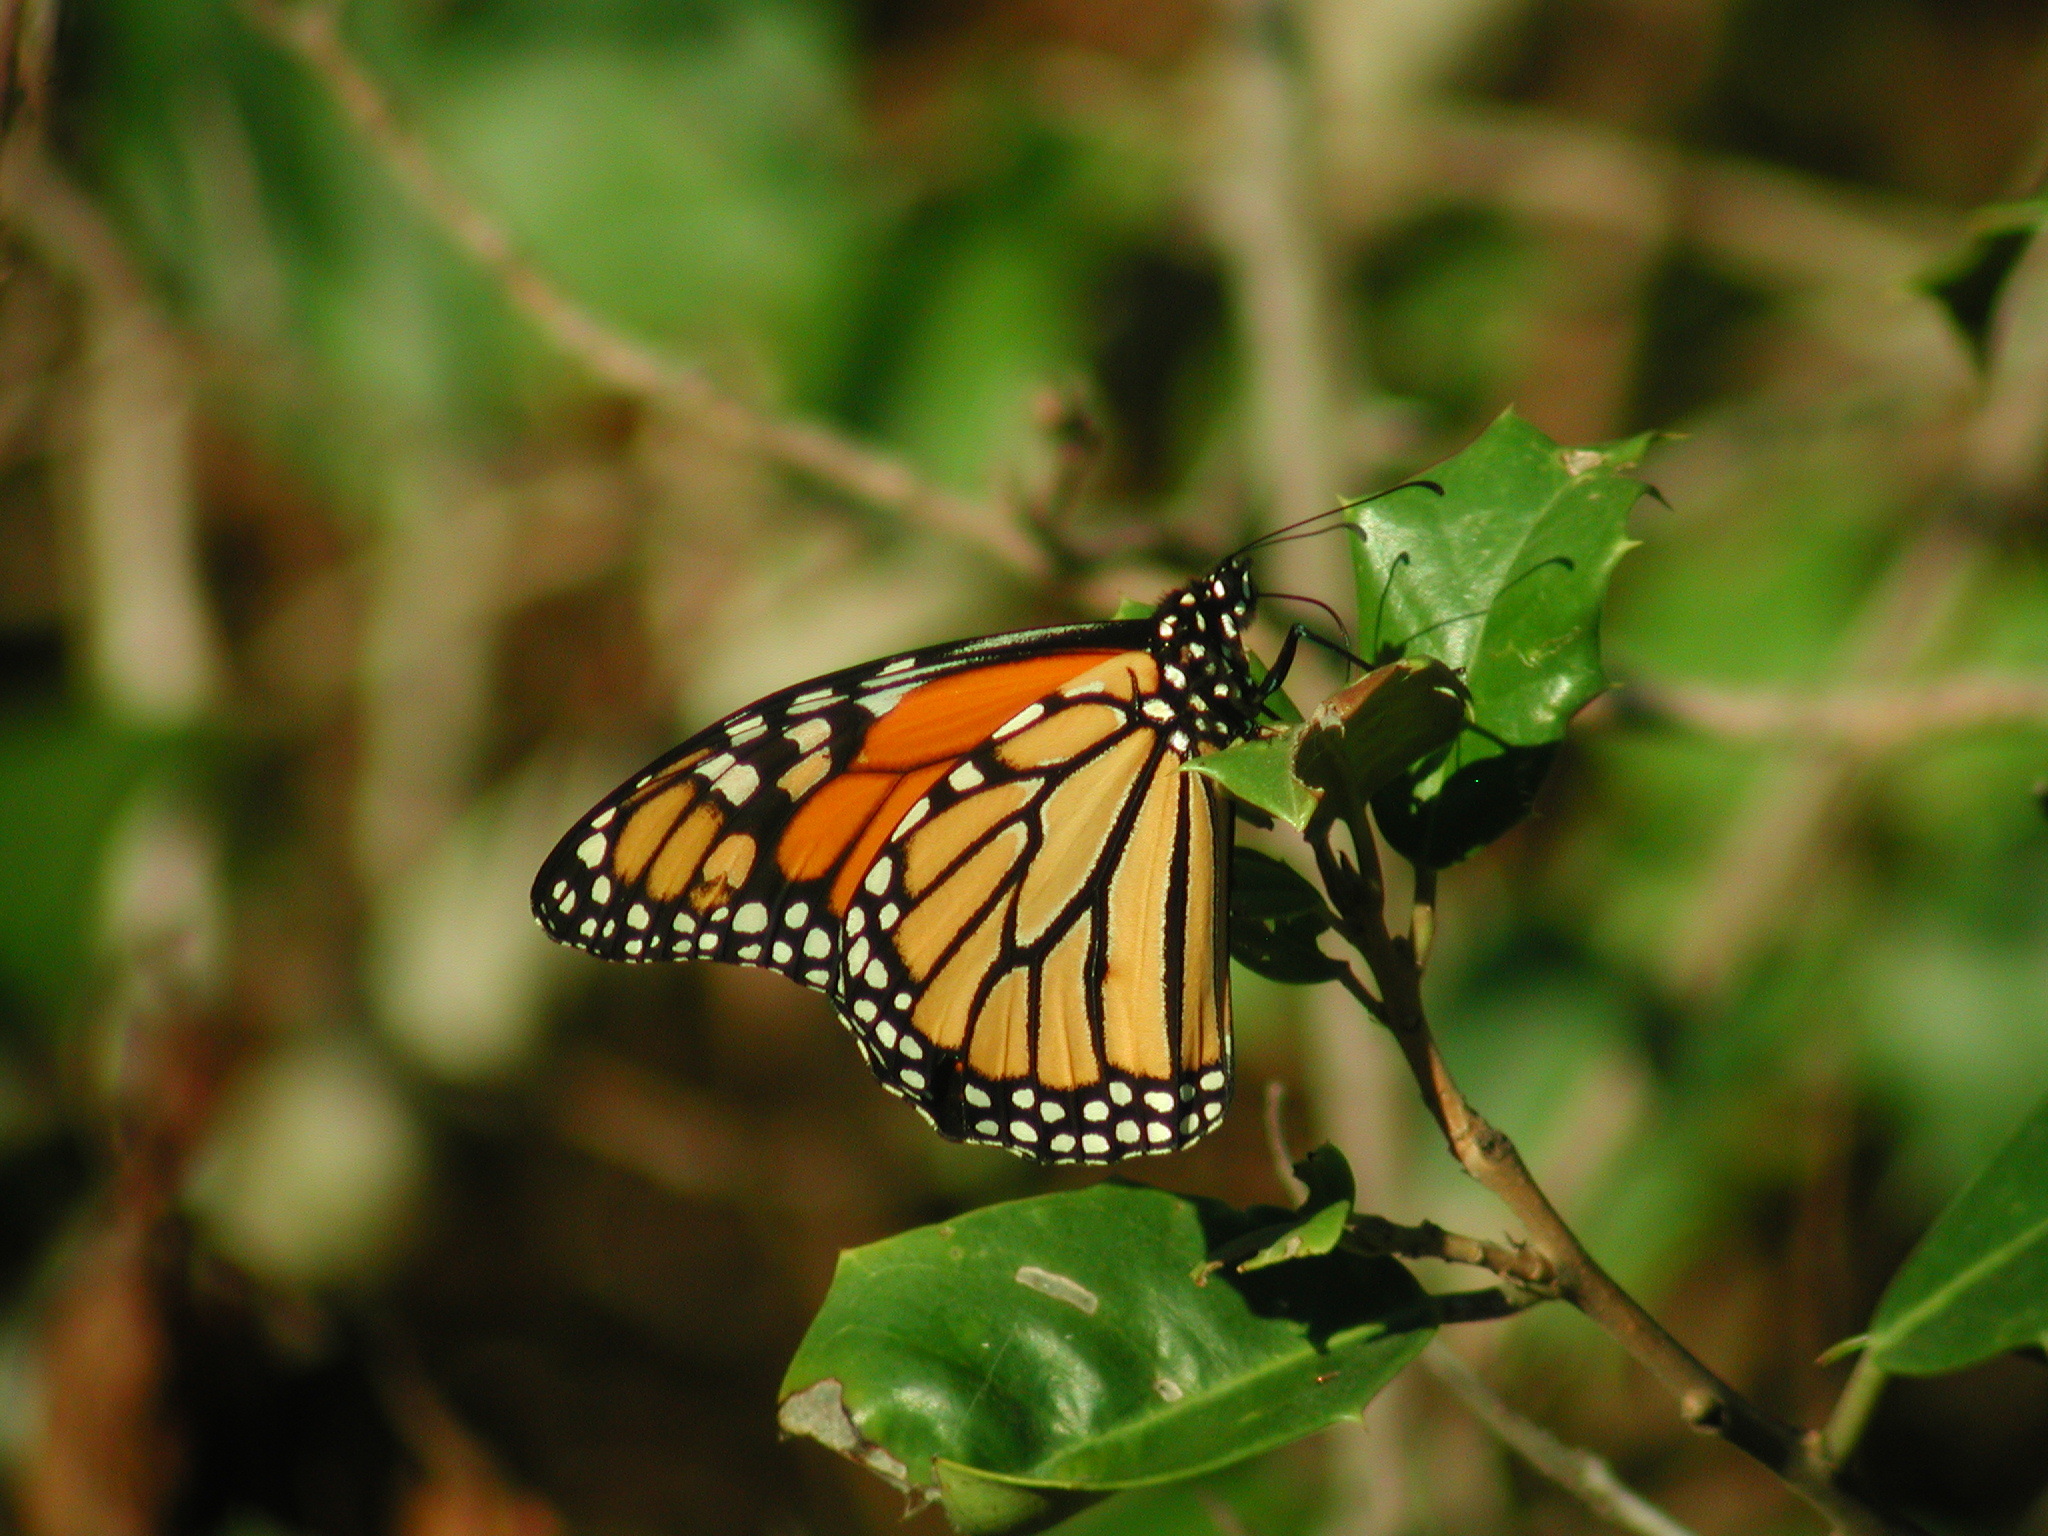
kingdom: Animalia
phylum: Arthropoda
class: Insecta
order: Lepidoptera
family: Nymphalidae
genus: Danaus
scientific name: Danaus plexippus
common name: Monarch
